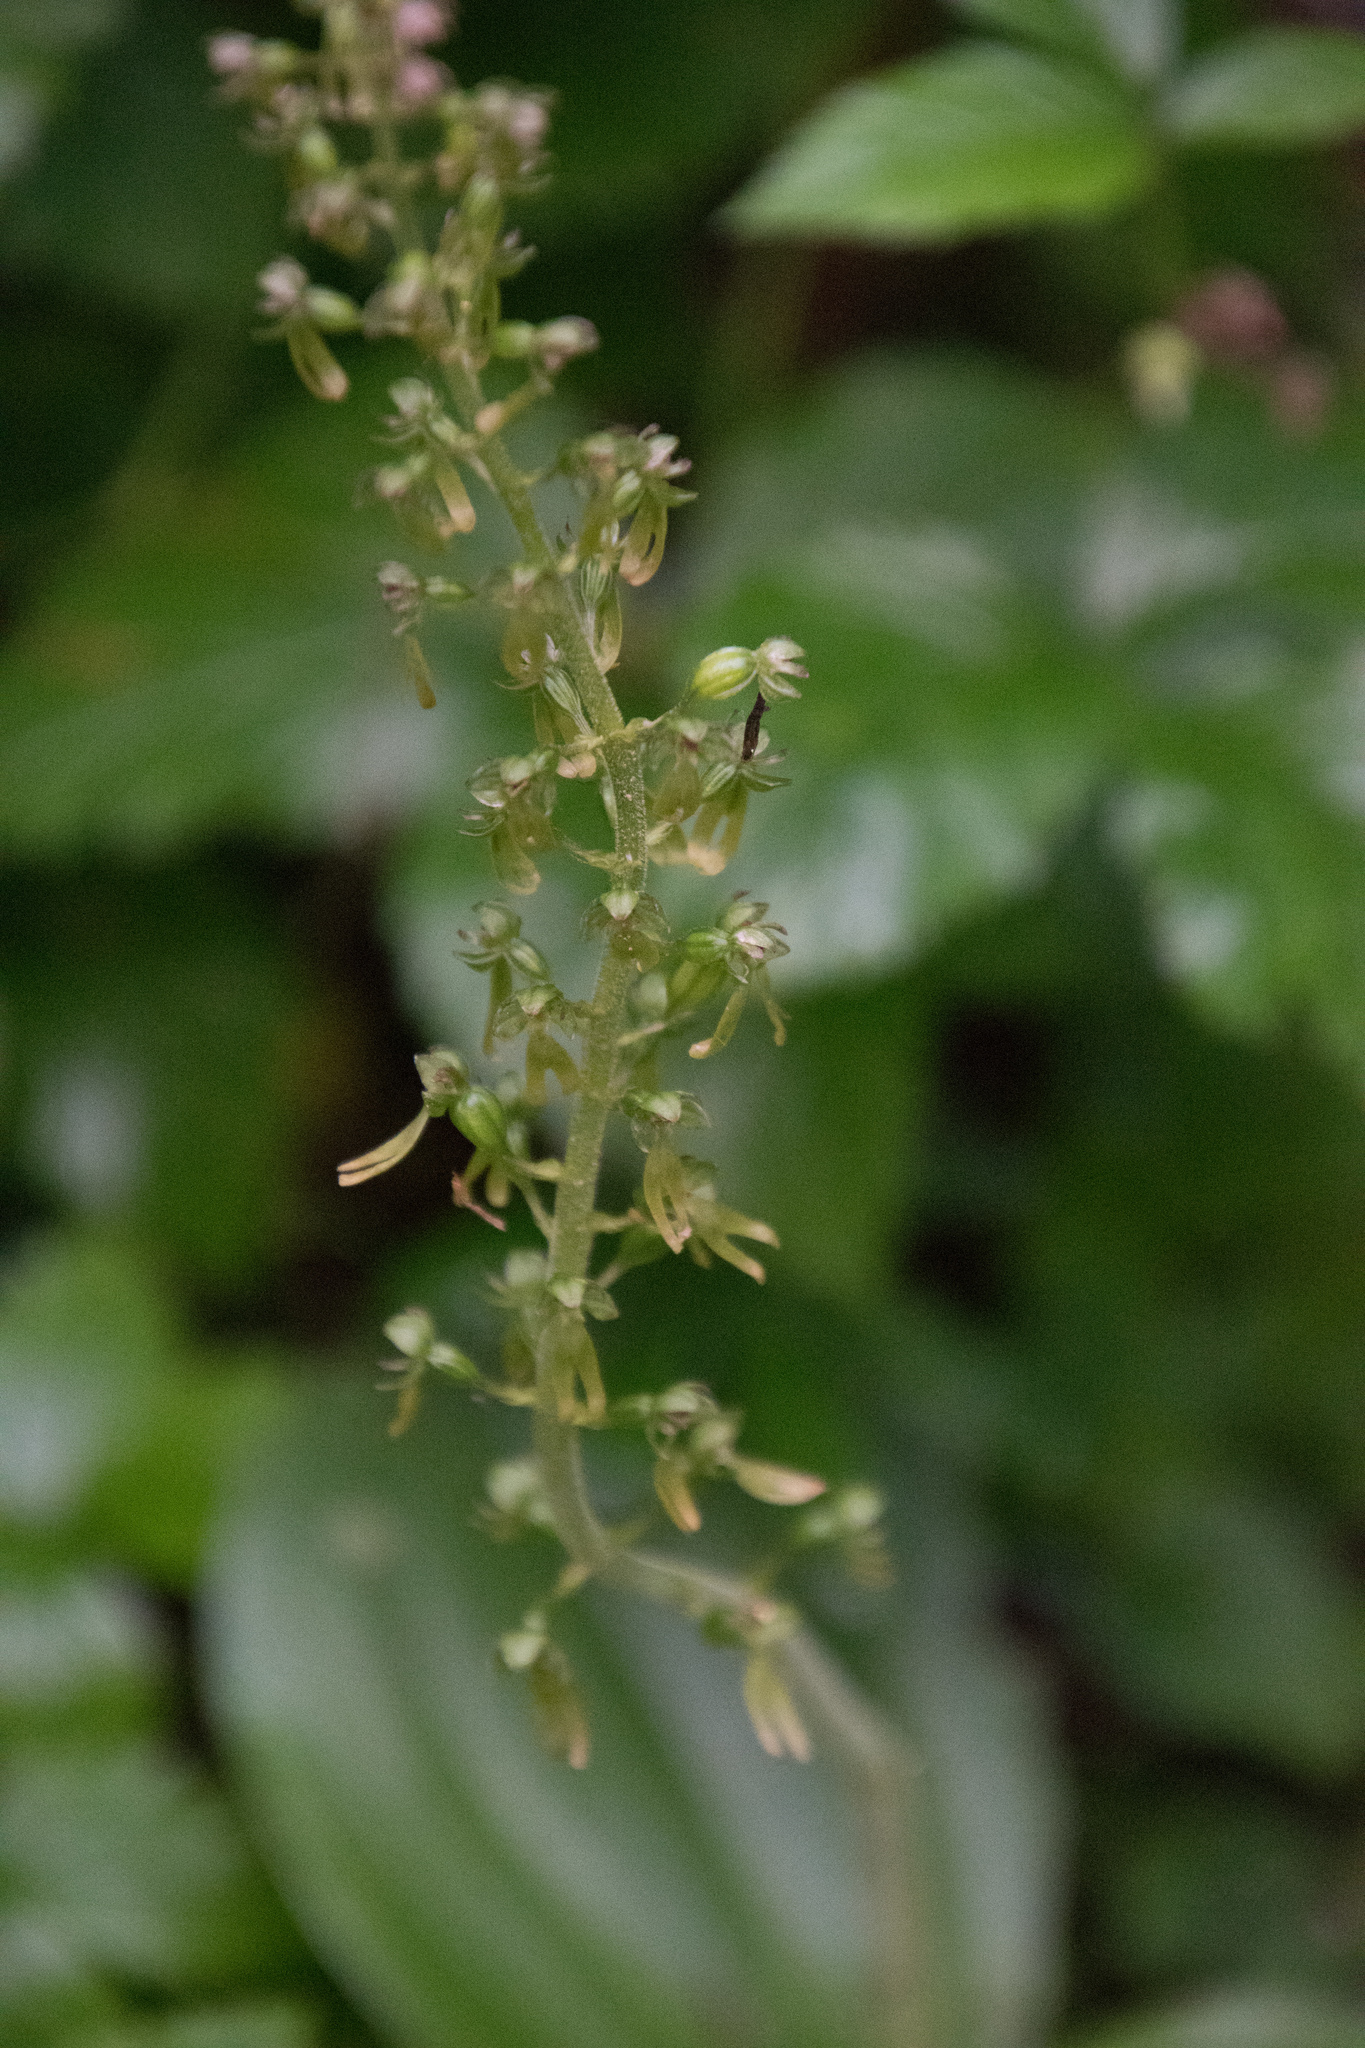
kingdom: Plantae
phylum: Tracheophyta
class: Liliopsida
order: Asparagales
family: Orchidaceae
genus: Neottia
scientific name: Neottia ovata
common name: Common twayblade
